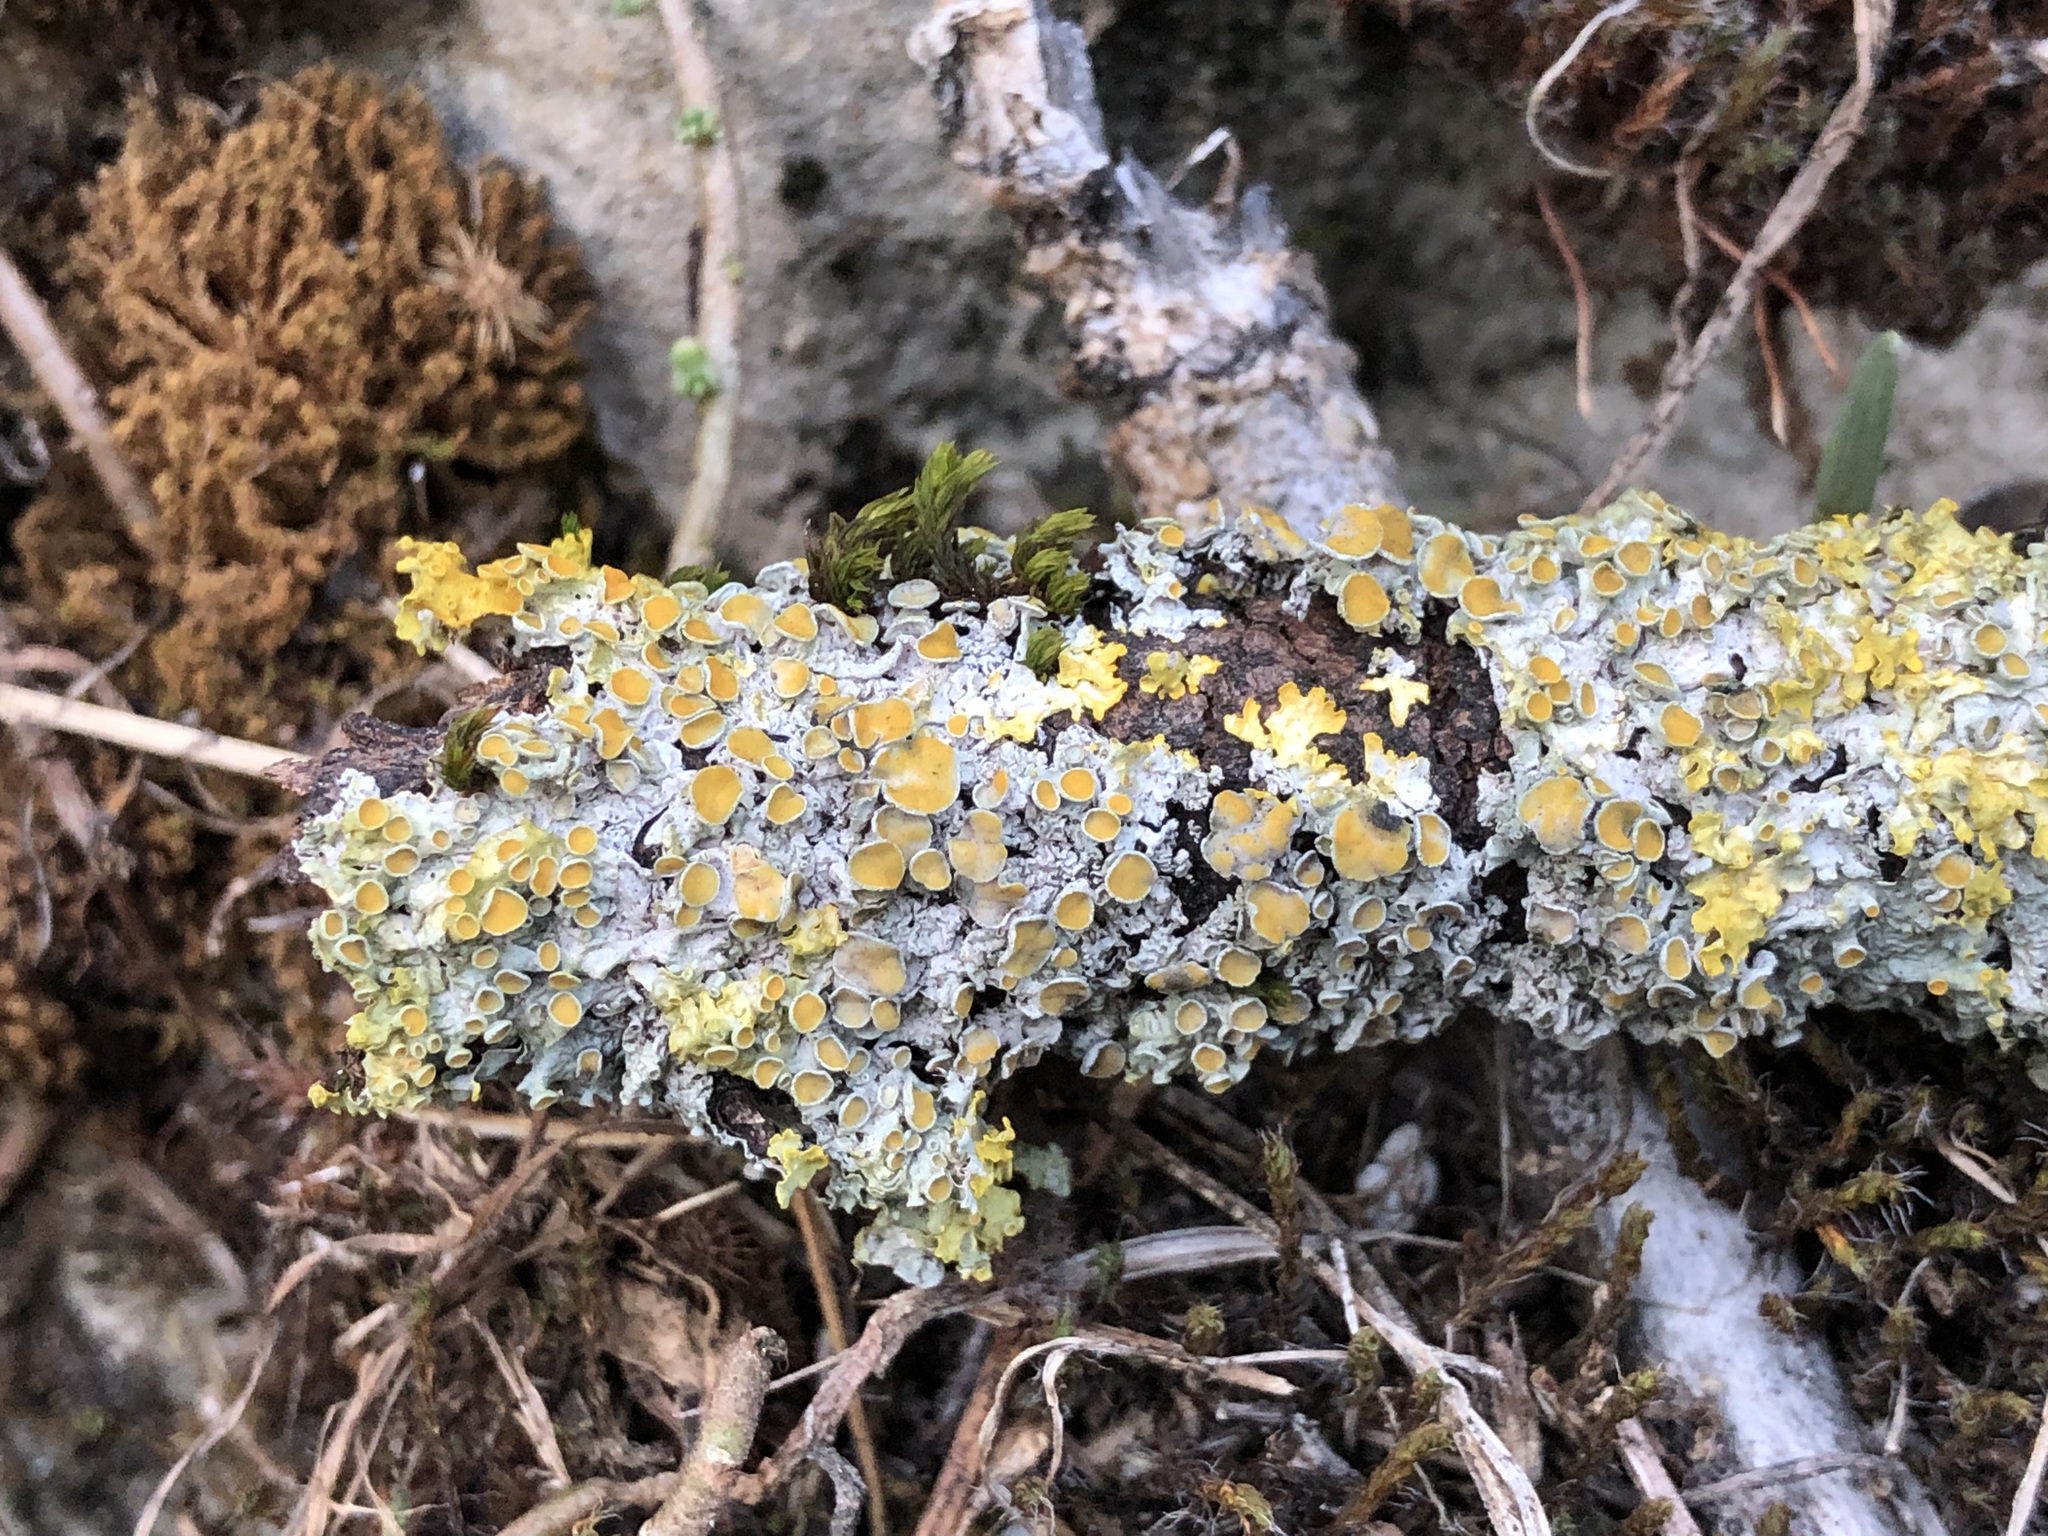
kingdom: Fungi
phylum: Ascomycota
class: Lecanoromycetes
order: Teloschistales
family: Teloschistaceae
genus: Xanthoria
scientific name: Xanthoria parietina
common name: Common orange lichen
